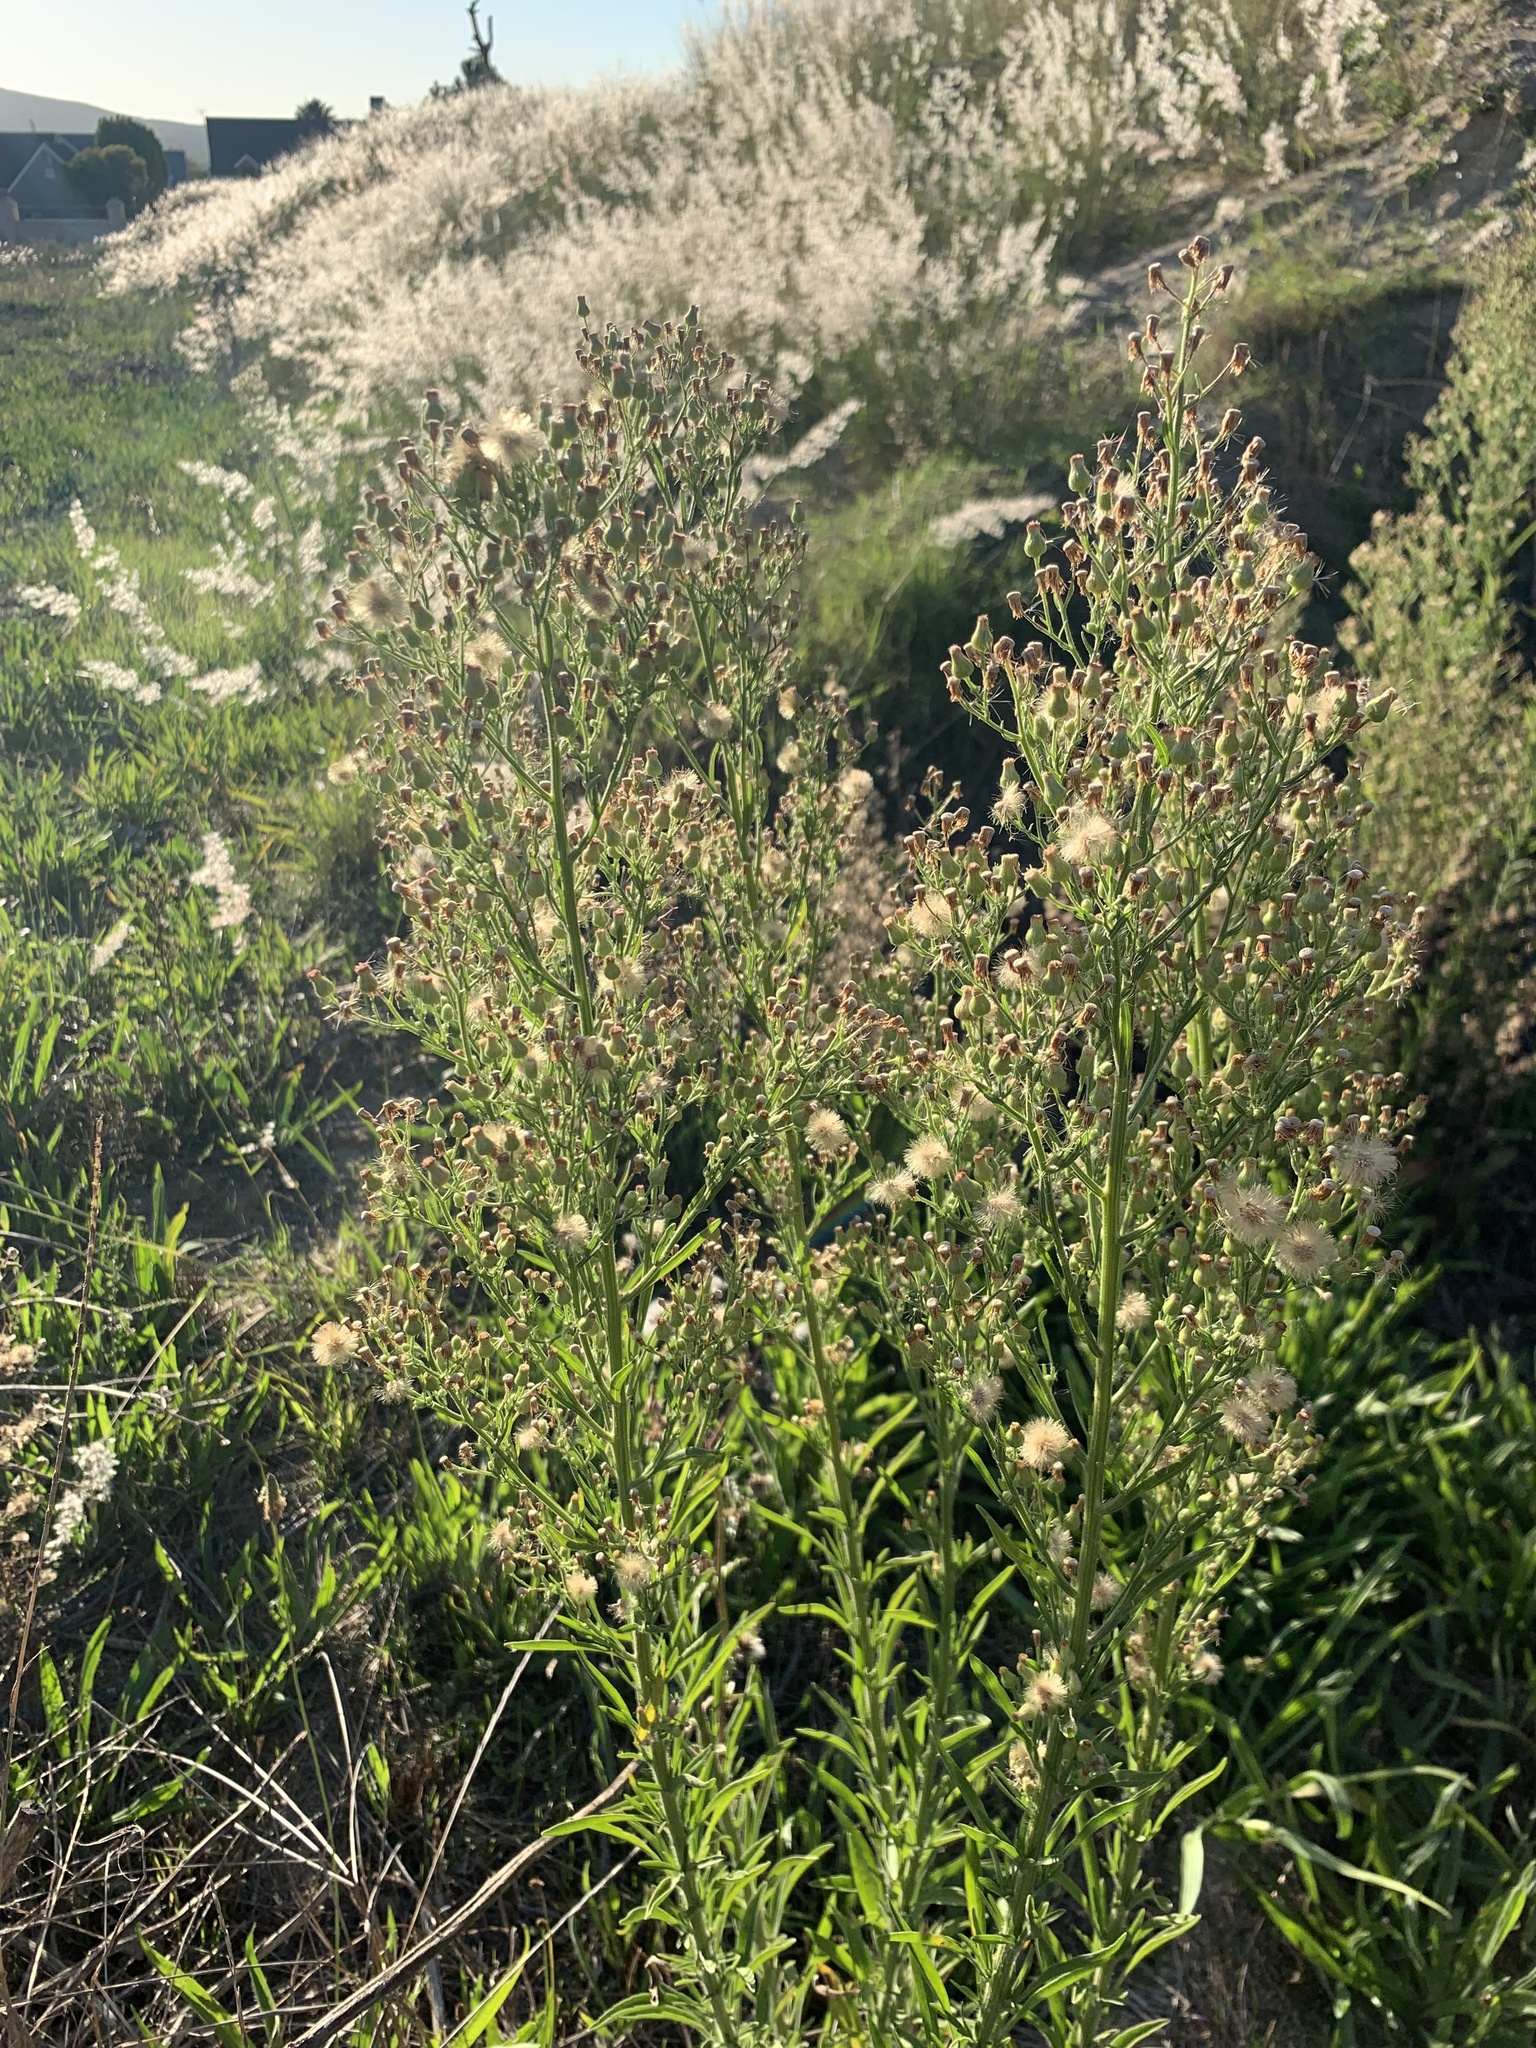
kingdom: Plantae
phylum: Tracheophyta
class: Magnoliopsida
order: Asterales
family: Asteraceae
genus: Erigeron
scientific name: Erigeron sumatrensis
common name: Daisy
